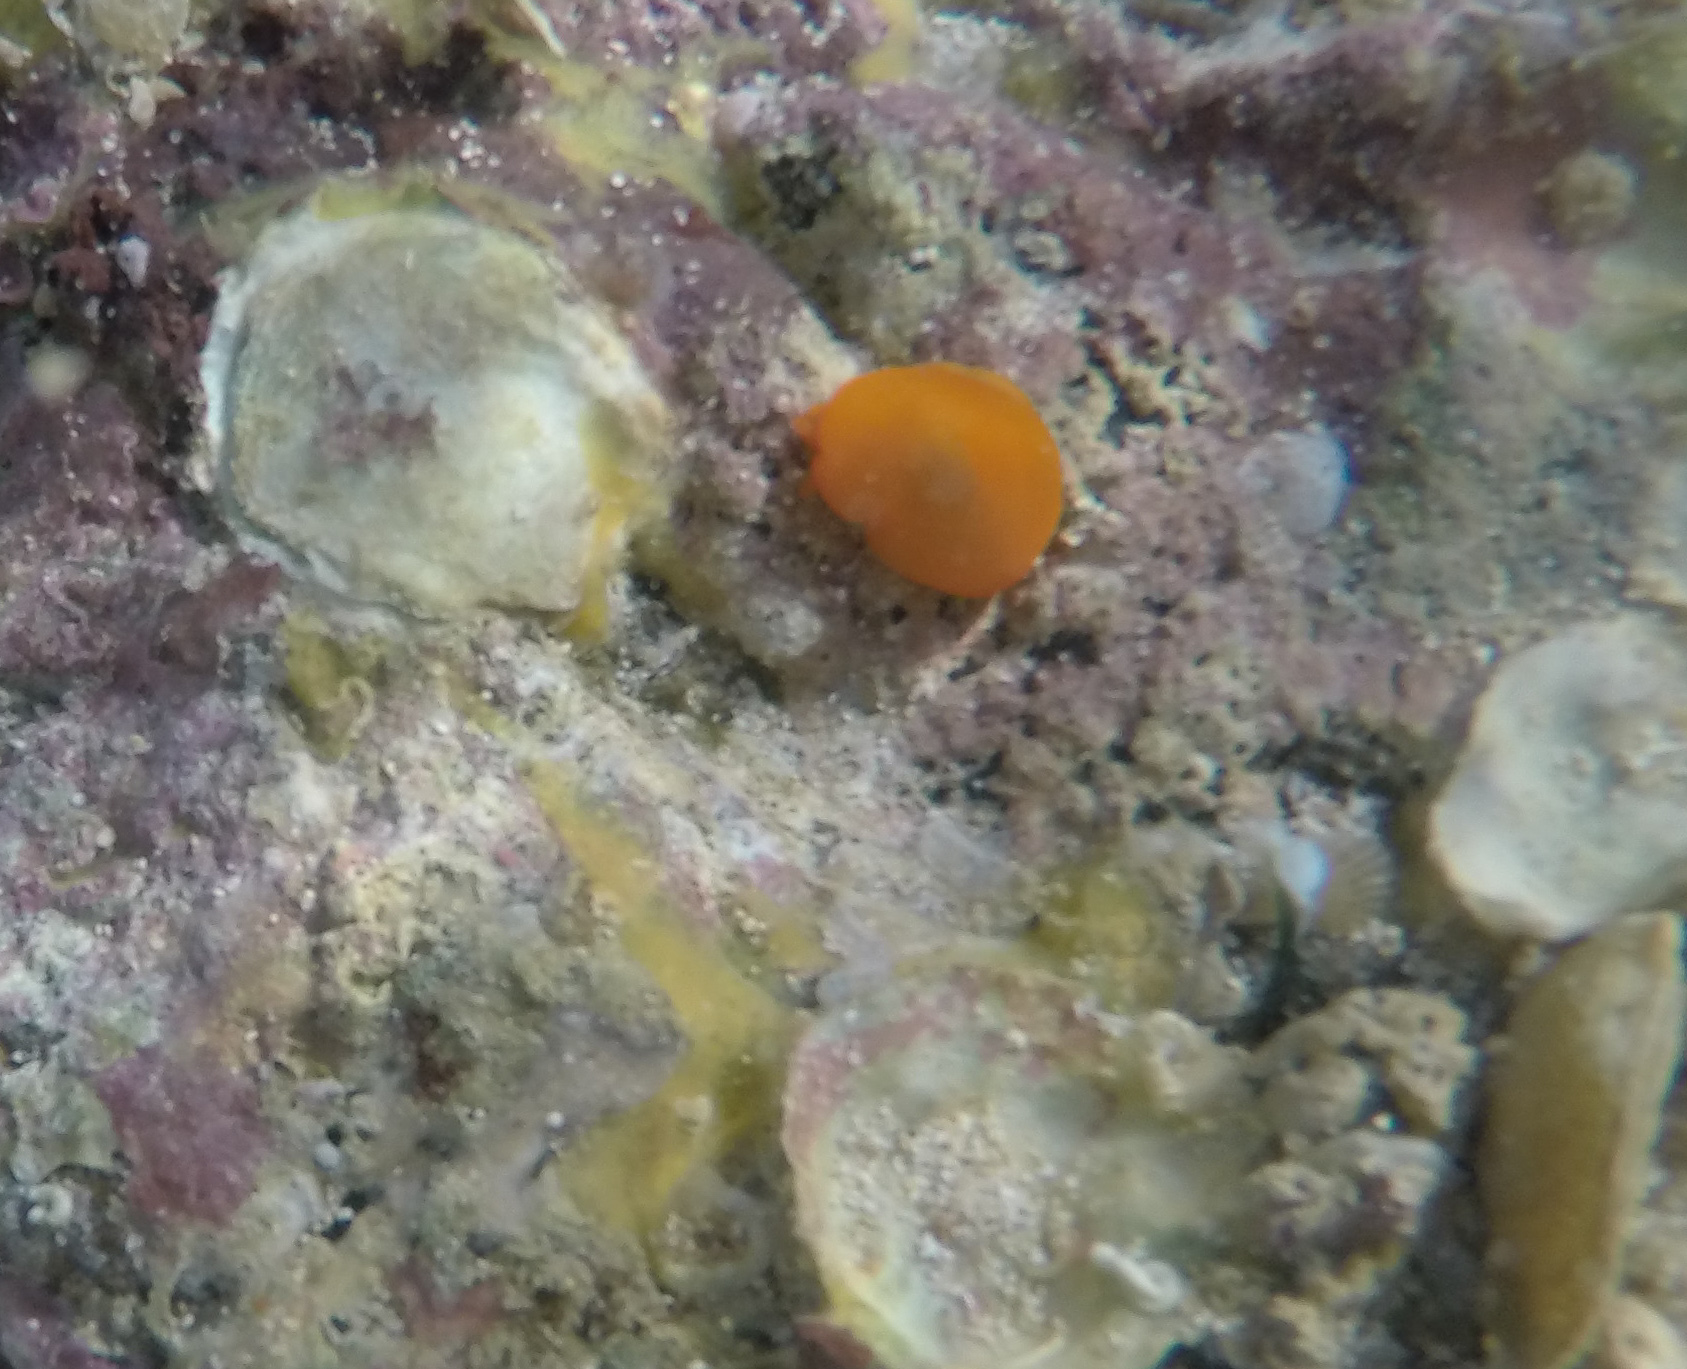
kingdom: Animalia
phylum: Mollusca
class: Gastropoda
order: Pleurobranchida
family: Pleurobranchidae
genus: Berthellina
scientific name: Berthellina delicata
